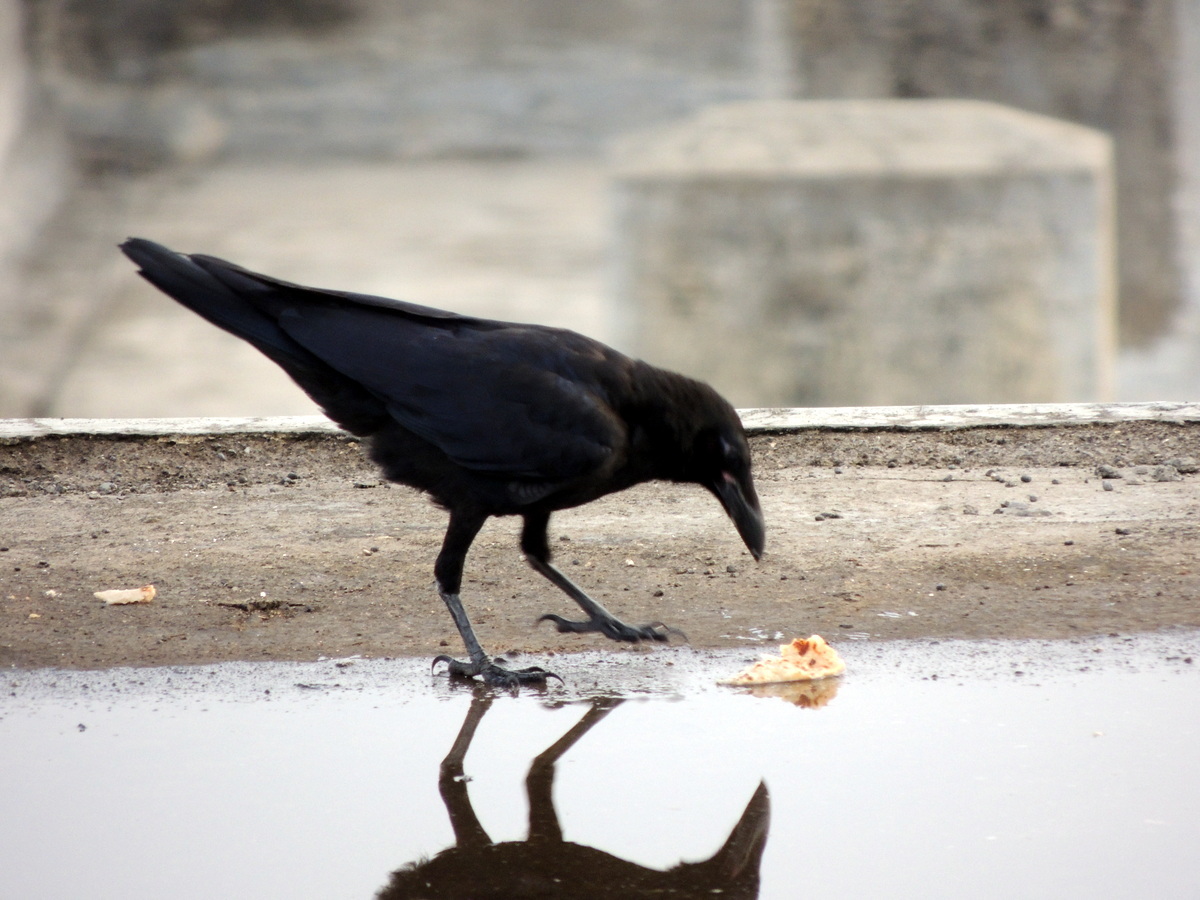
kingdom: Animalia
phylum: Chordata
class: Aves
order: Passeriformes
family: Corvidae
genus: Corvus
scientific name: Corvus macrorhynchos
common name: Large-billed crow
